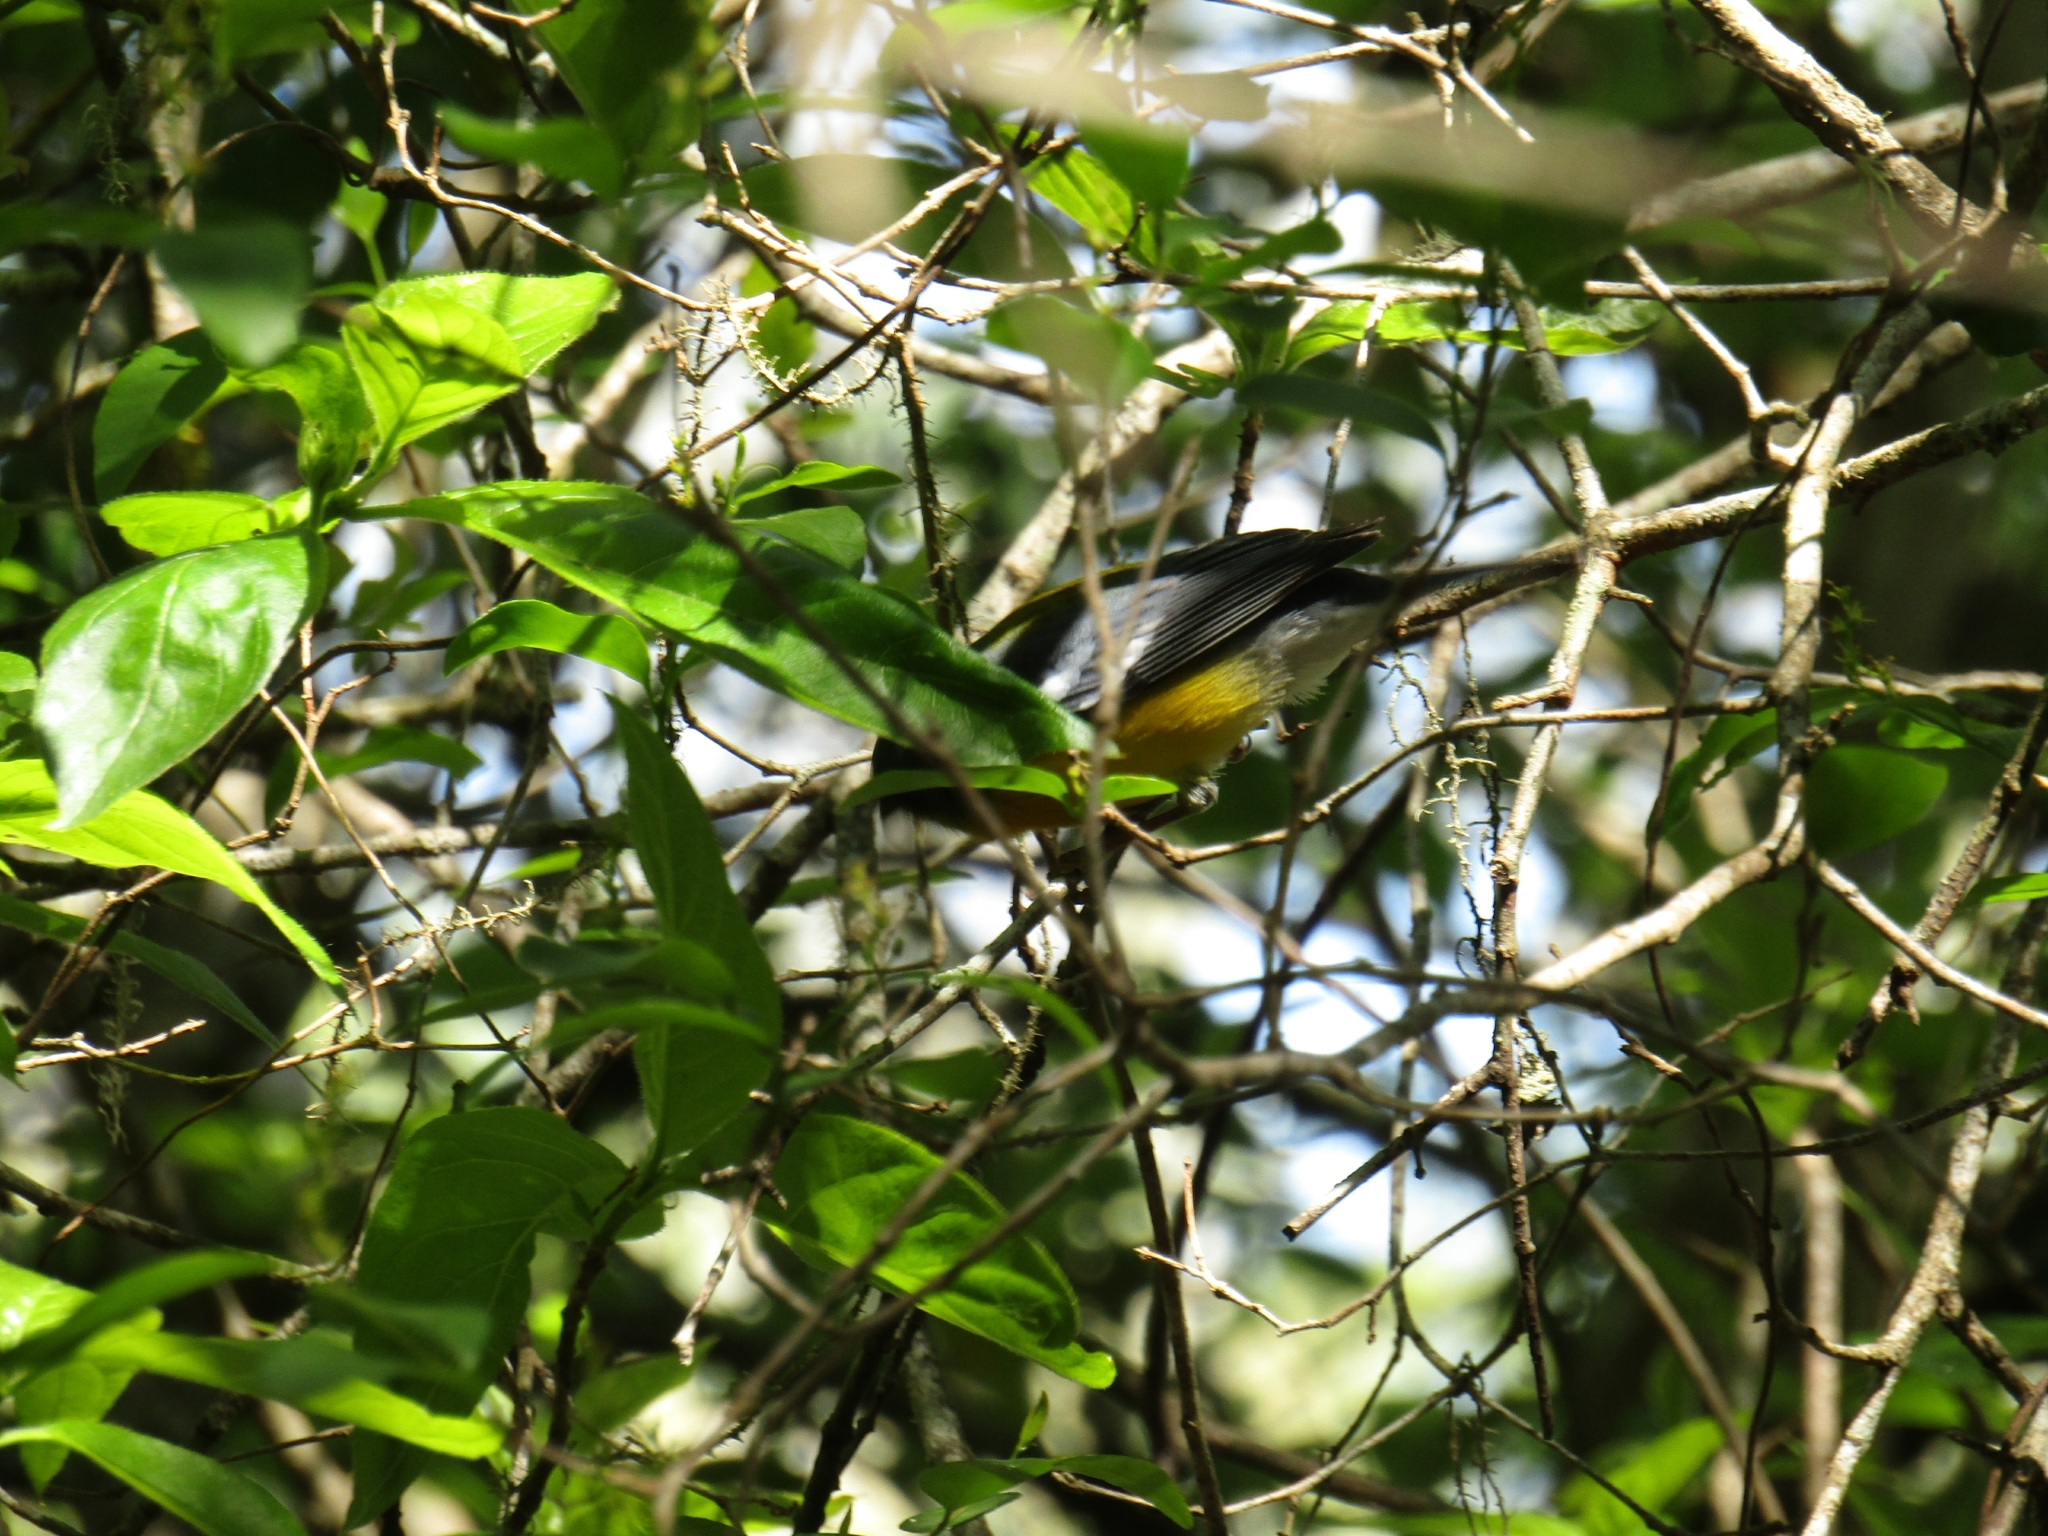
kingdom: Animalia
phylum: Chordata
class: Aves
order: Passeriformes
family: Parulidae
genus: Setophaga
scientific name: Setophaga pitiayumi
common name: Tropical parula
